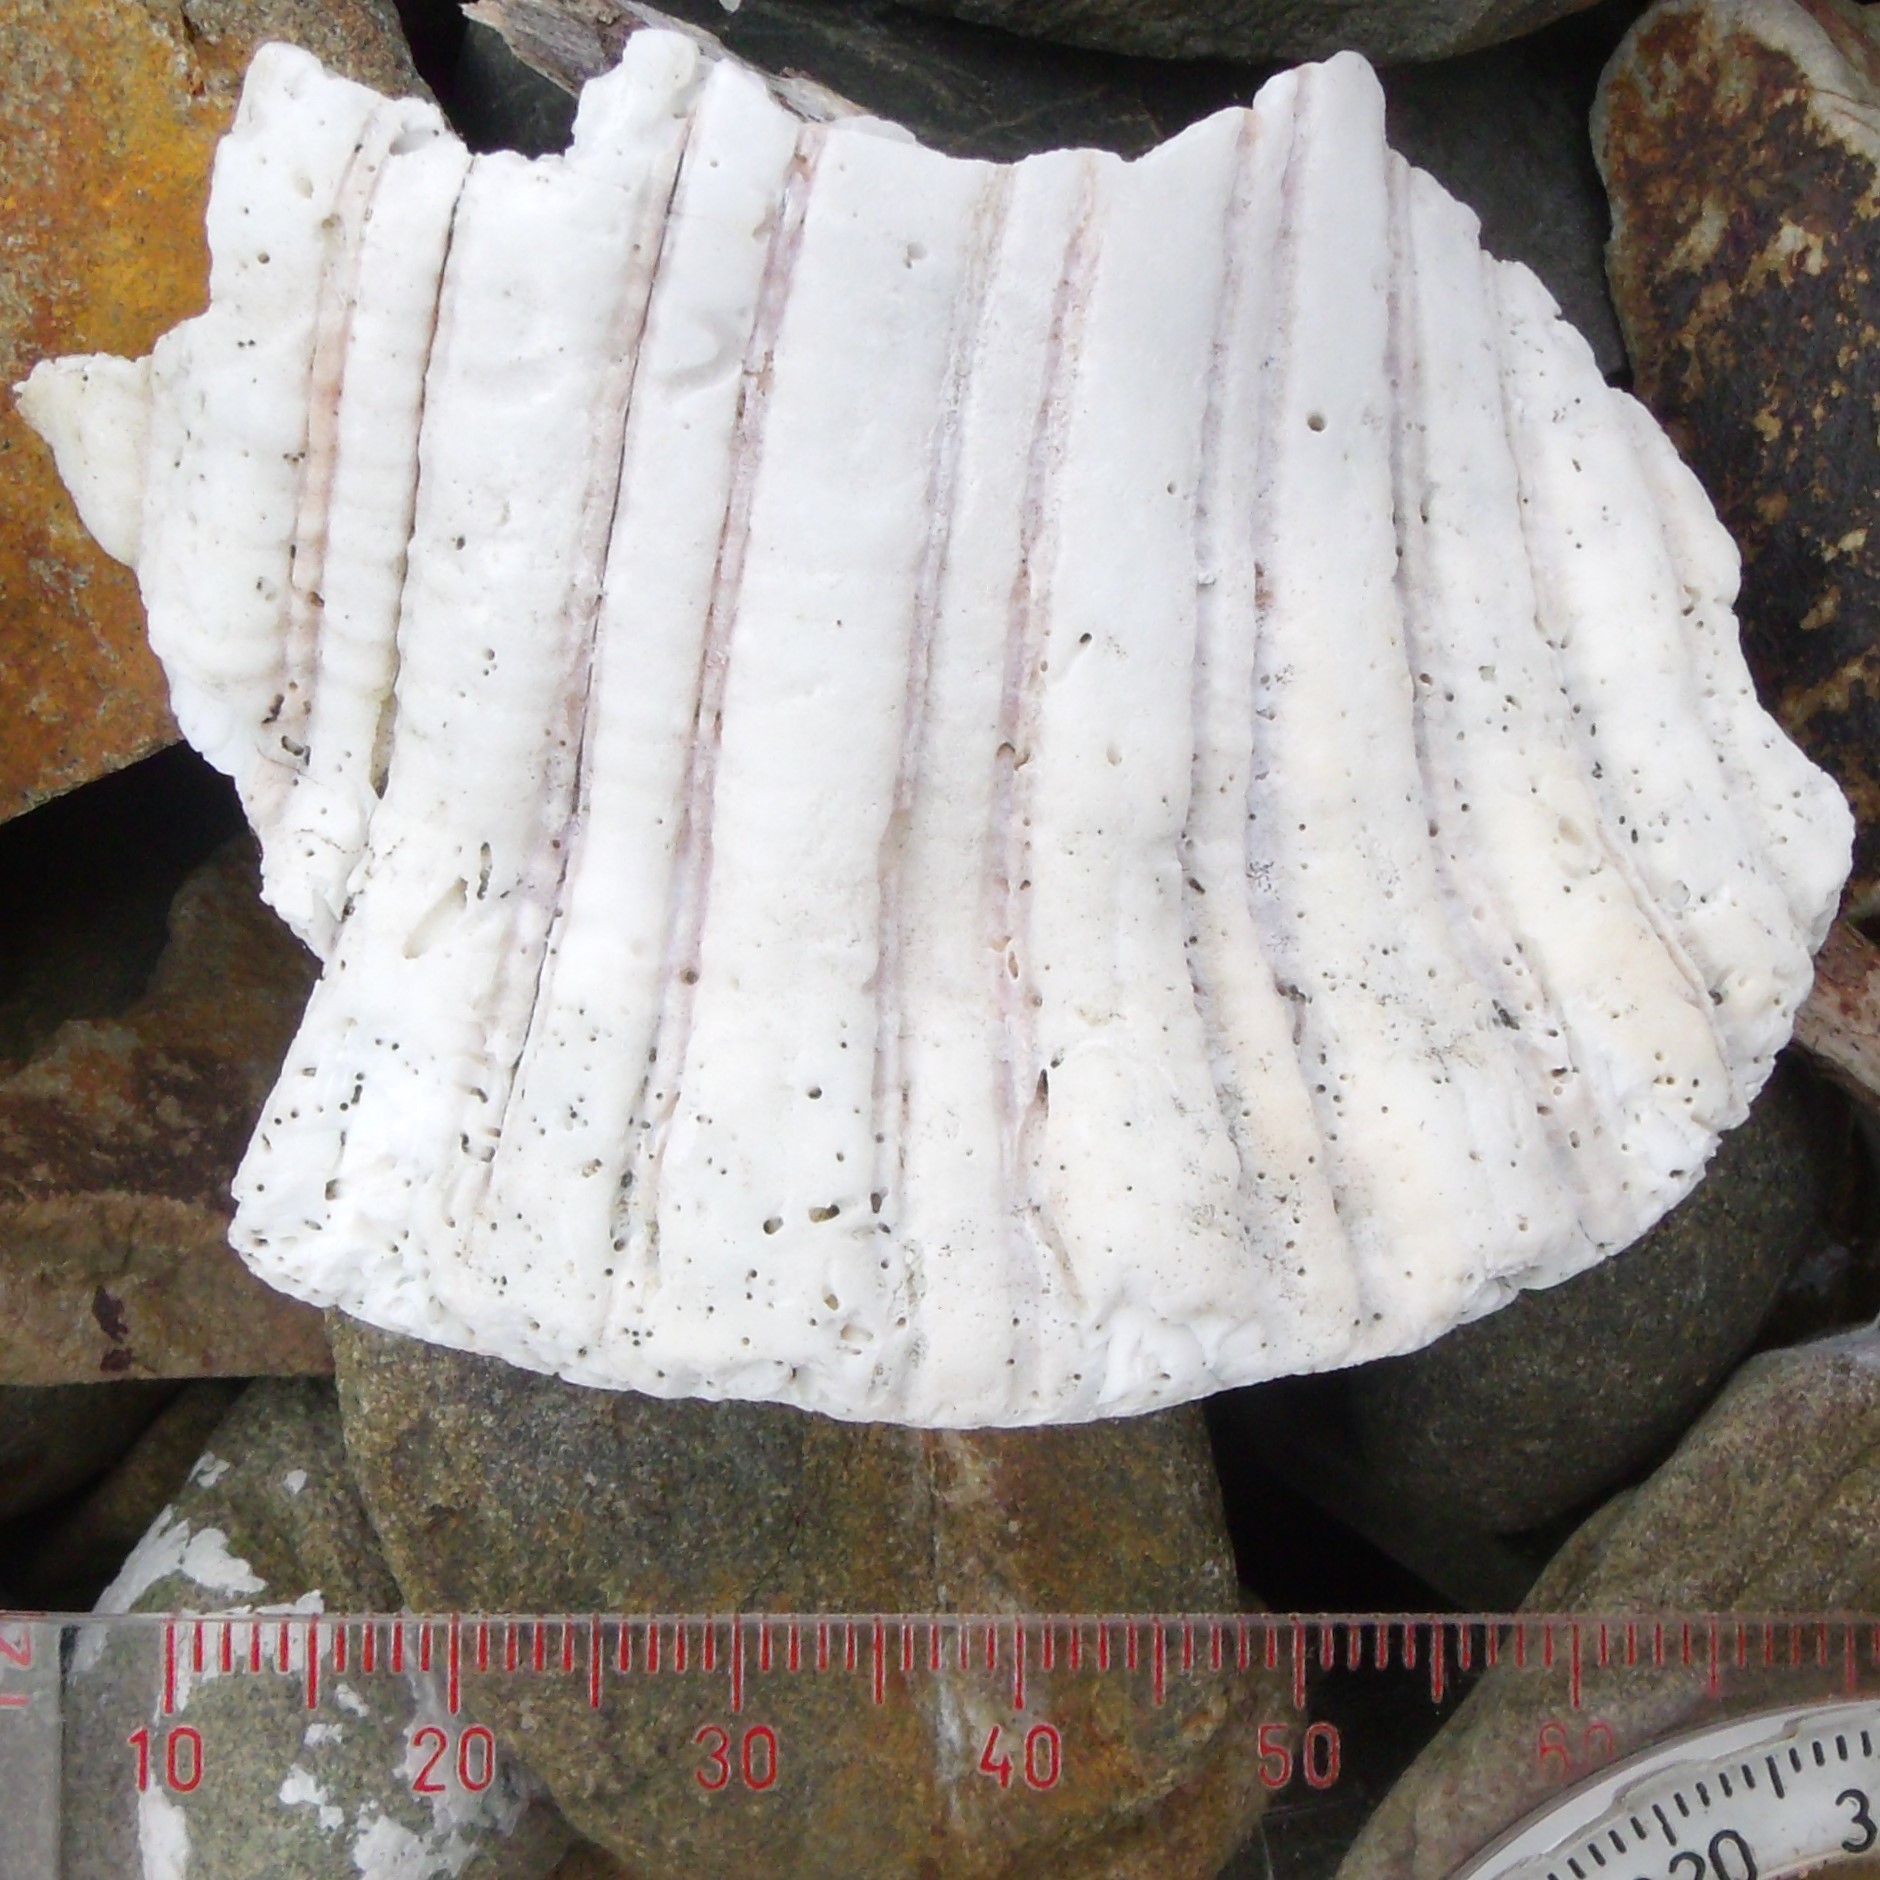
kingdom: Animalia
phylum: Mollusca
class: Gastropoda
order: Littorinimorpha
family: Cymatiidae
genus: Cabestana
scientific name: Cabestana spengleri
